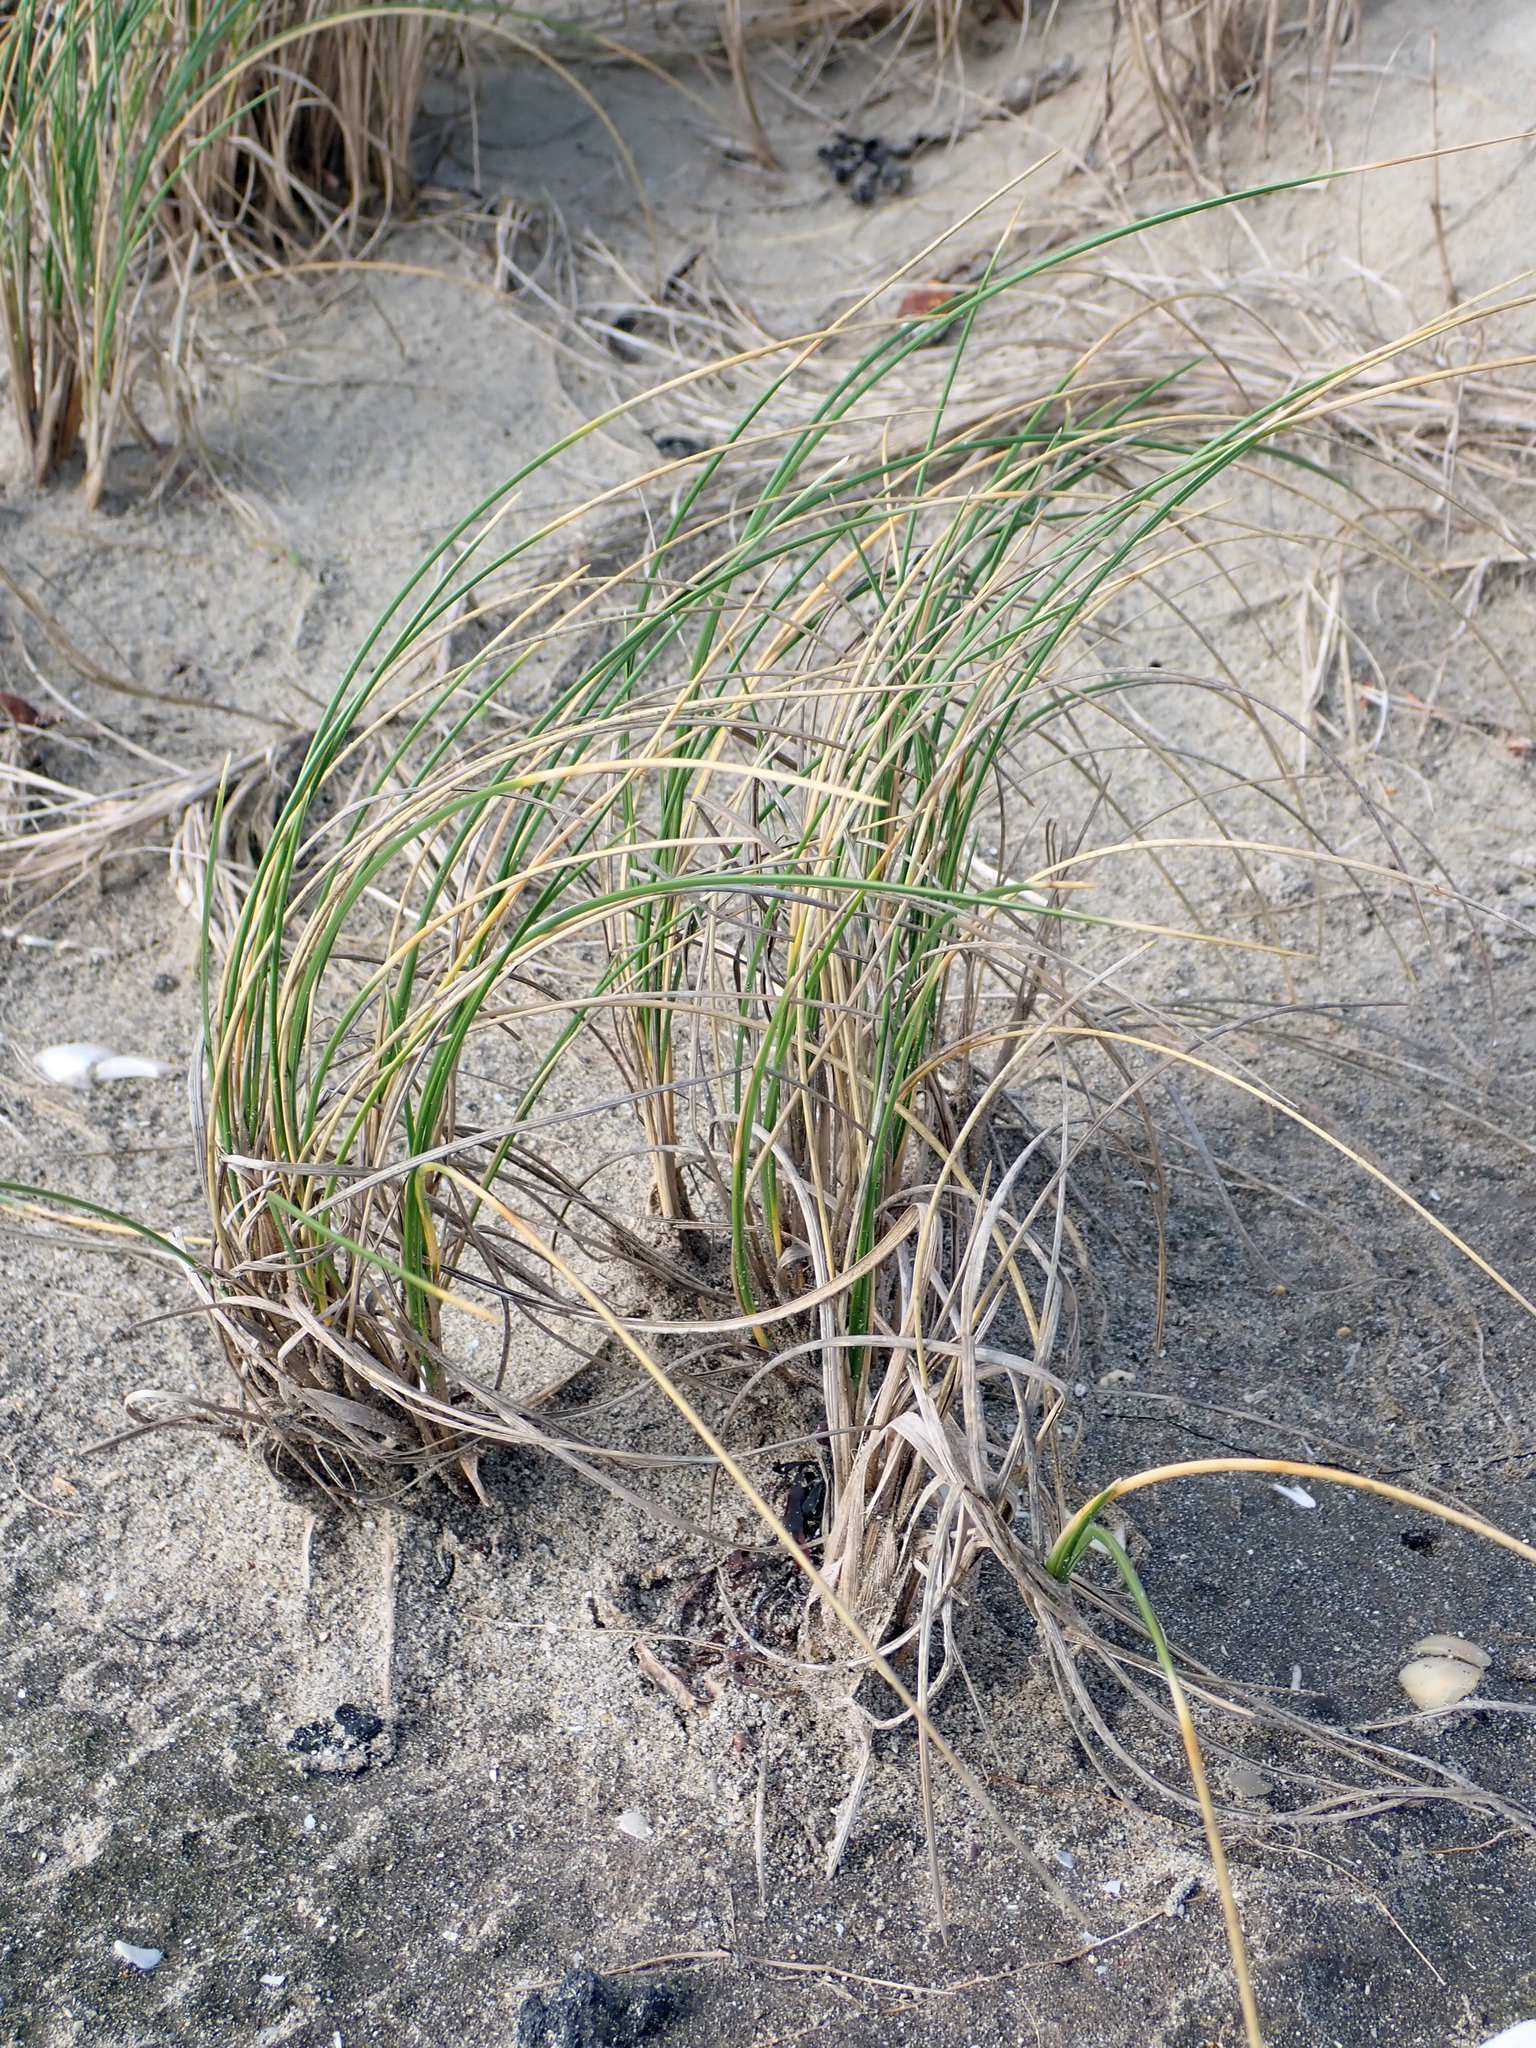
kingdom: Plantae
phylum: Tracheophyta
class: Liliopsida
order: Poales
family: Poaceae
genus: Poa
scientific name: Poa chathamica
